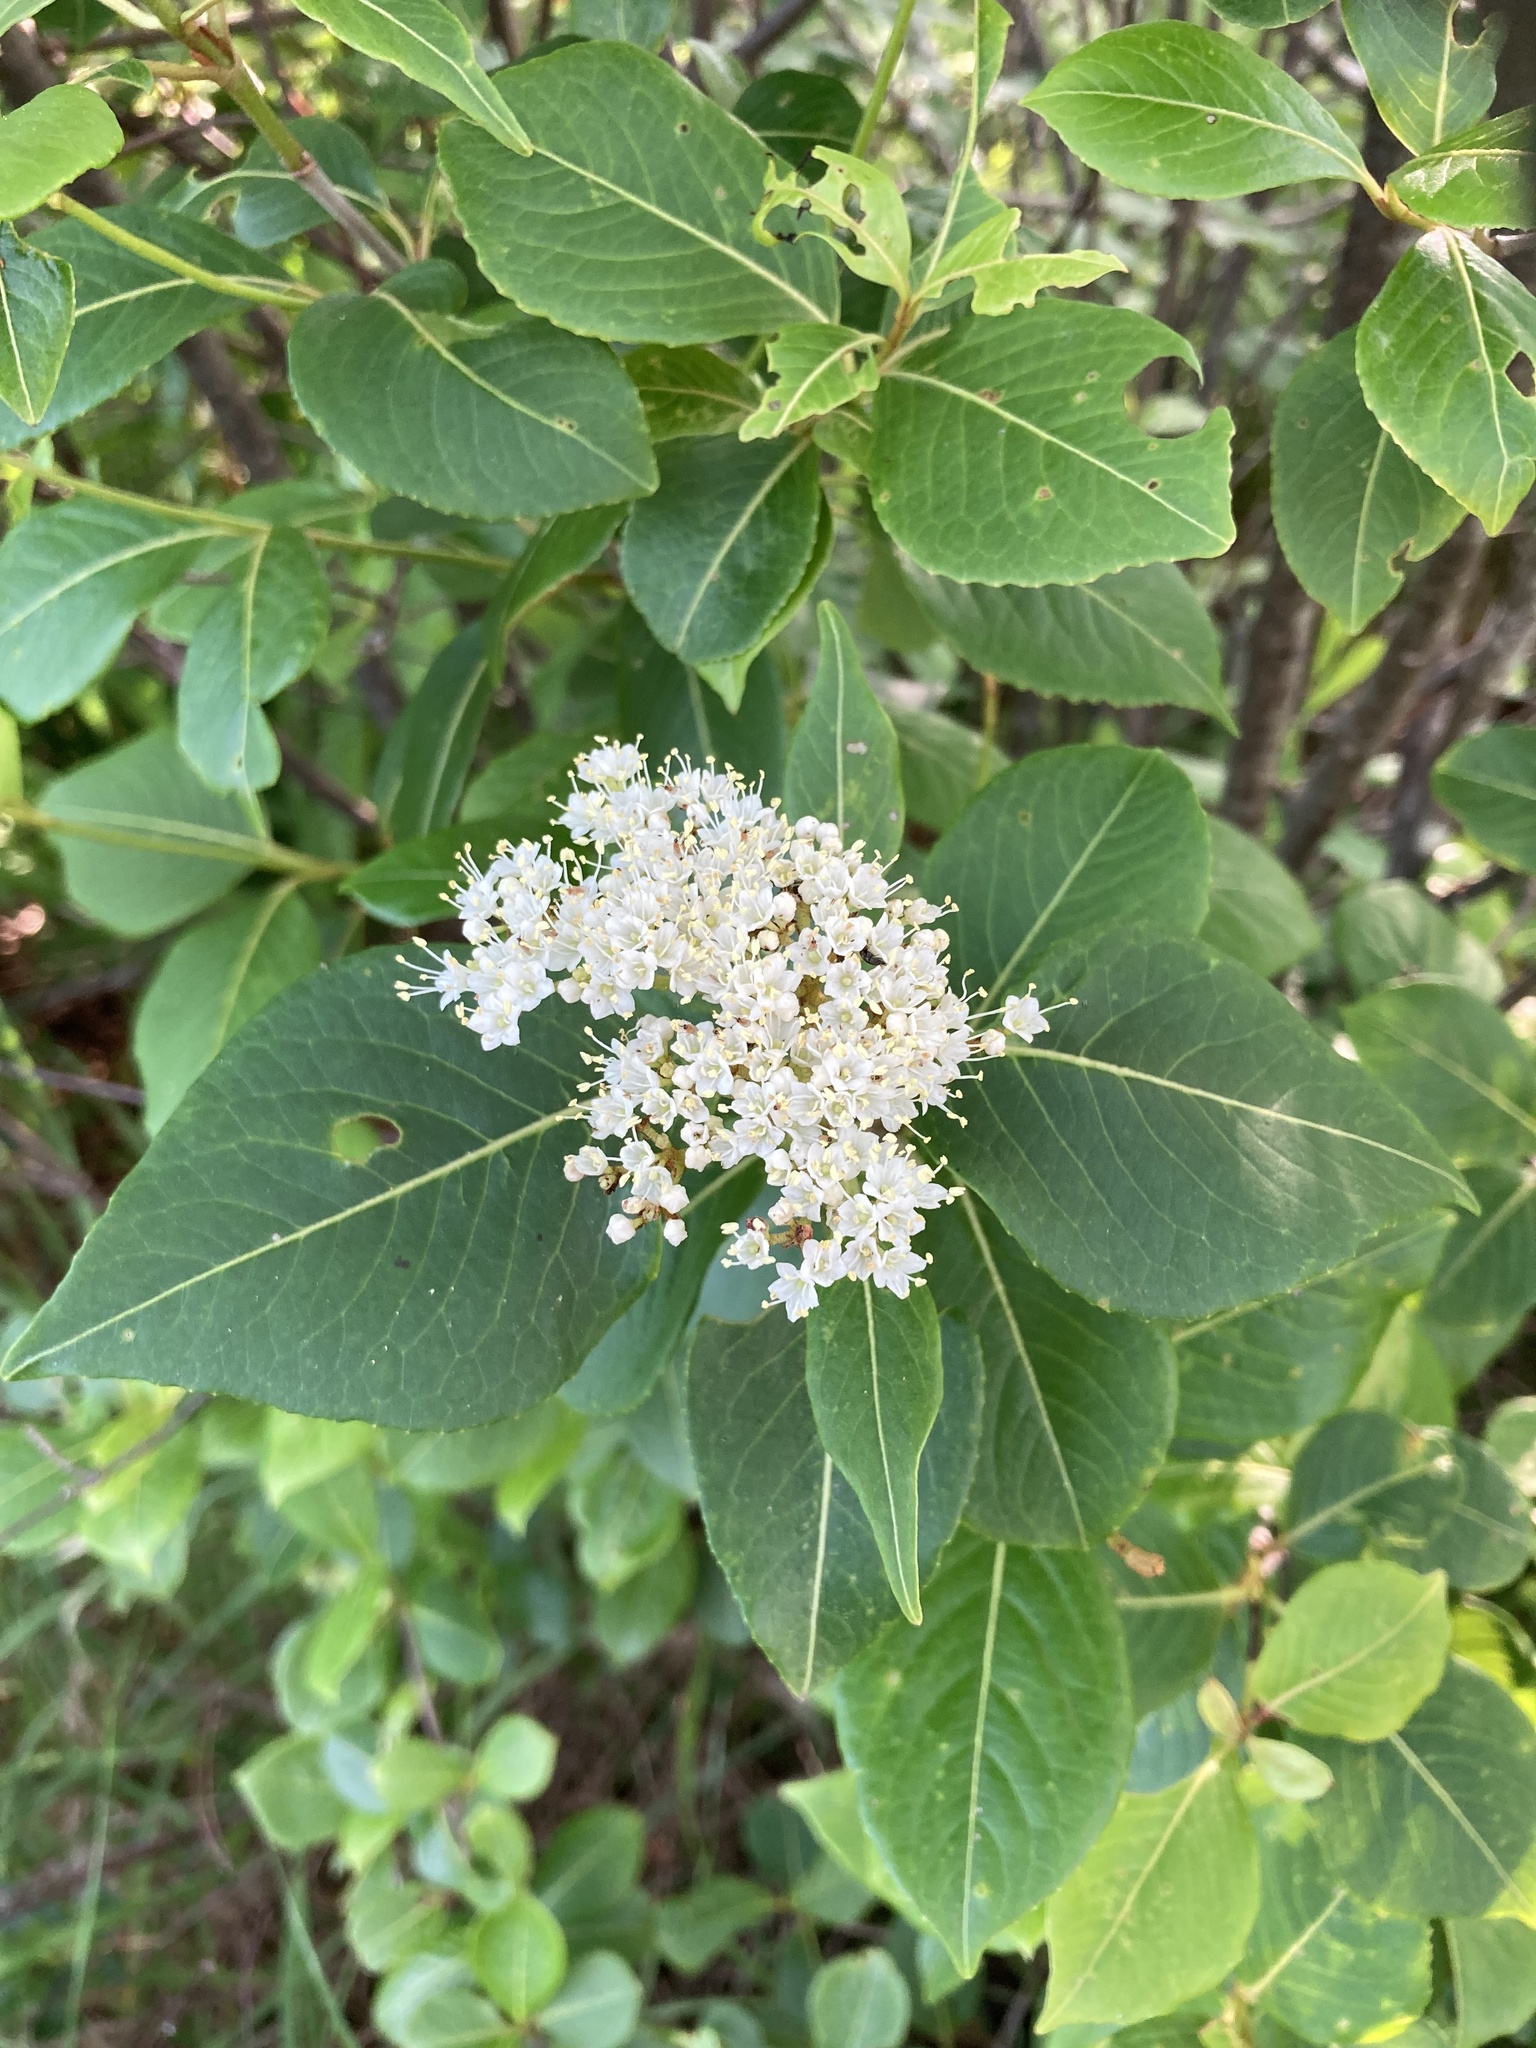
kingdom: Plantae
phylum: Tracheophyta
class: Magnoliopsida
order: Dipsacales
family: Viburnaceae
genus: Viburnum
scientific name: Viburnum cassinoides
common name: Swamp haw
